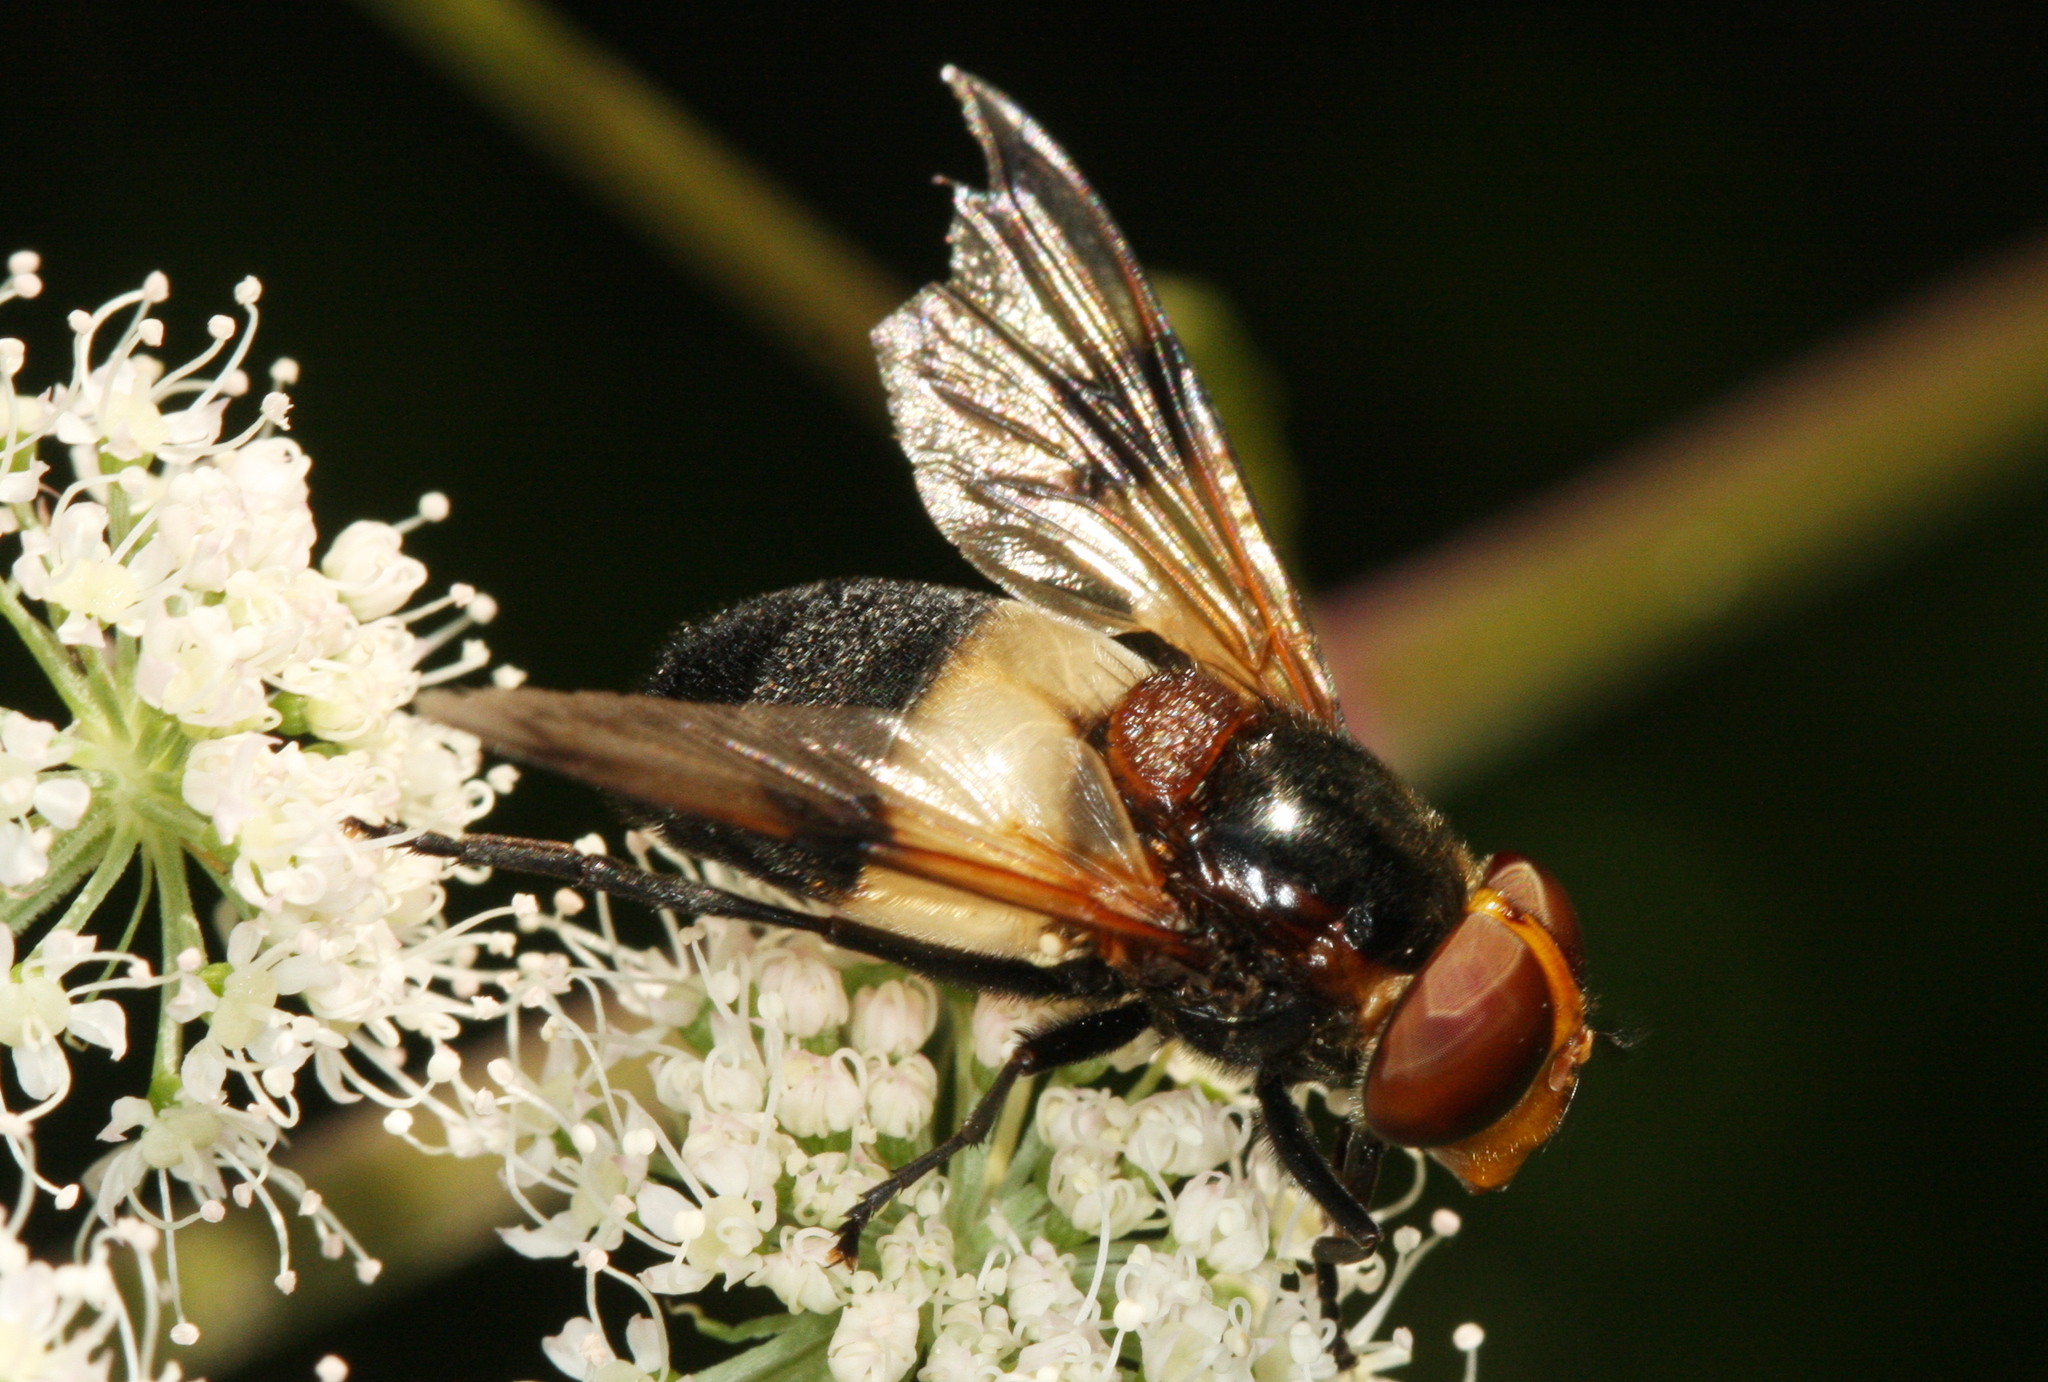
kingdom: Animalia
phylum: Arthropoda
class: Insecta
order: Diptera
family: Syrphidae
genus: Volucella
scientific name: Volucella pellucens
